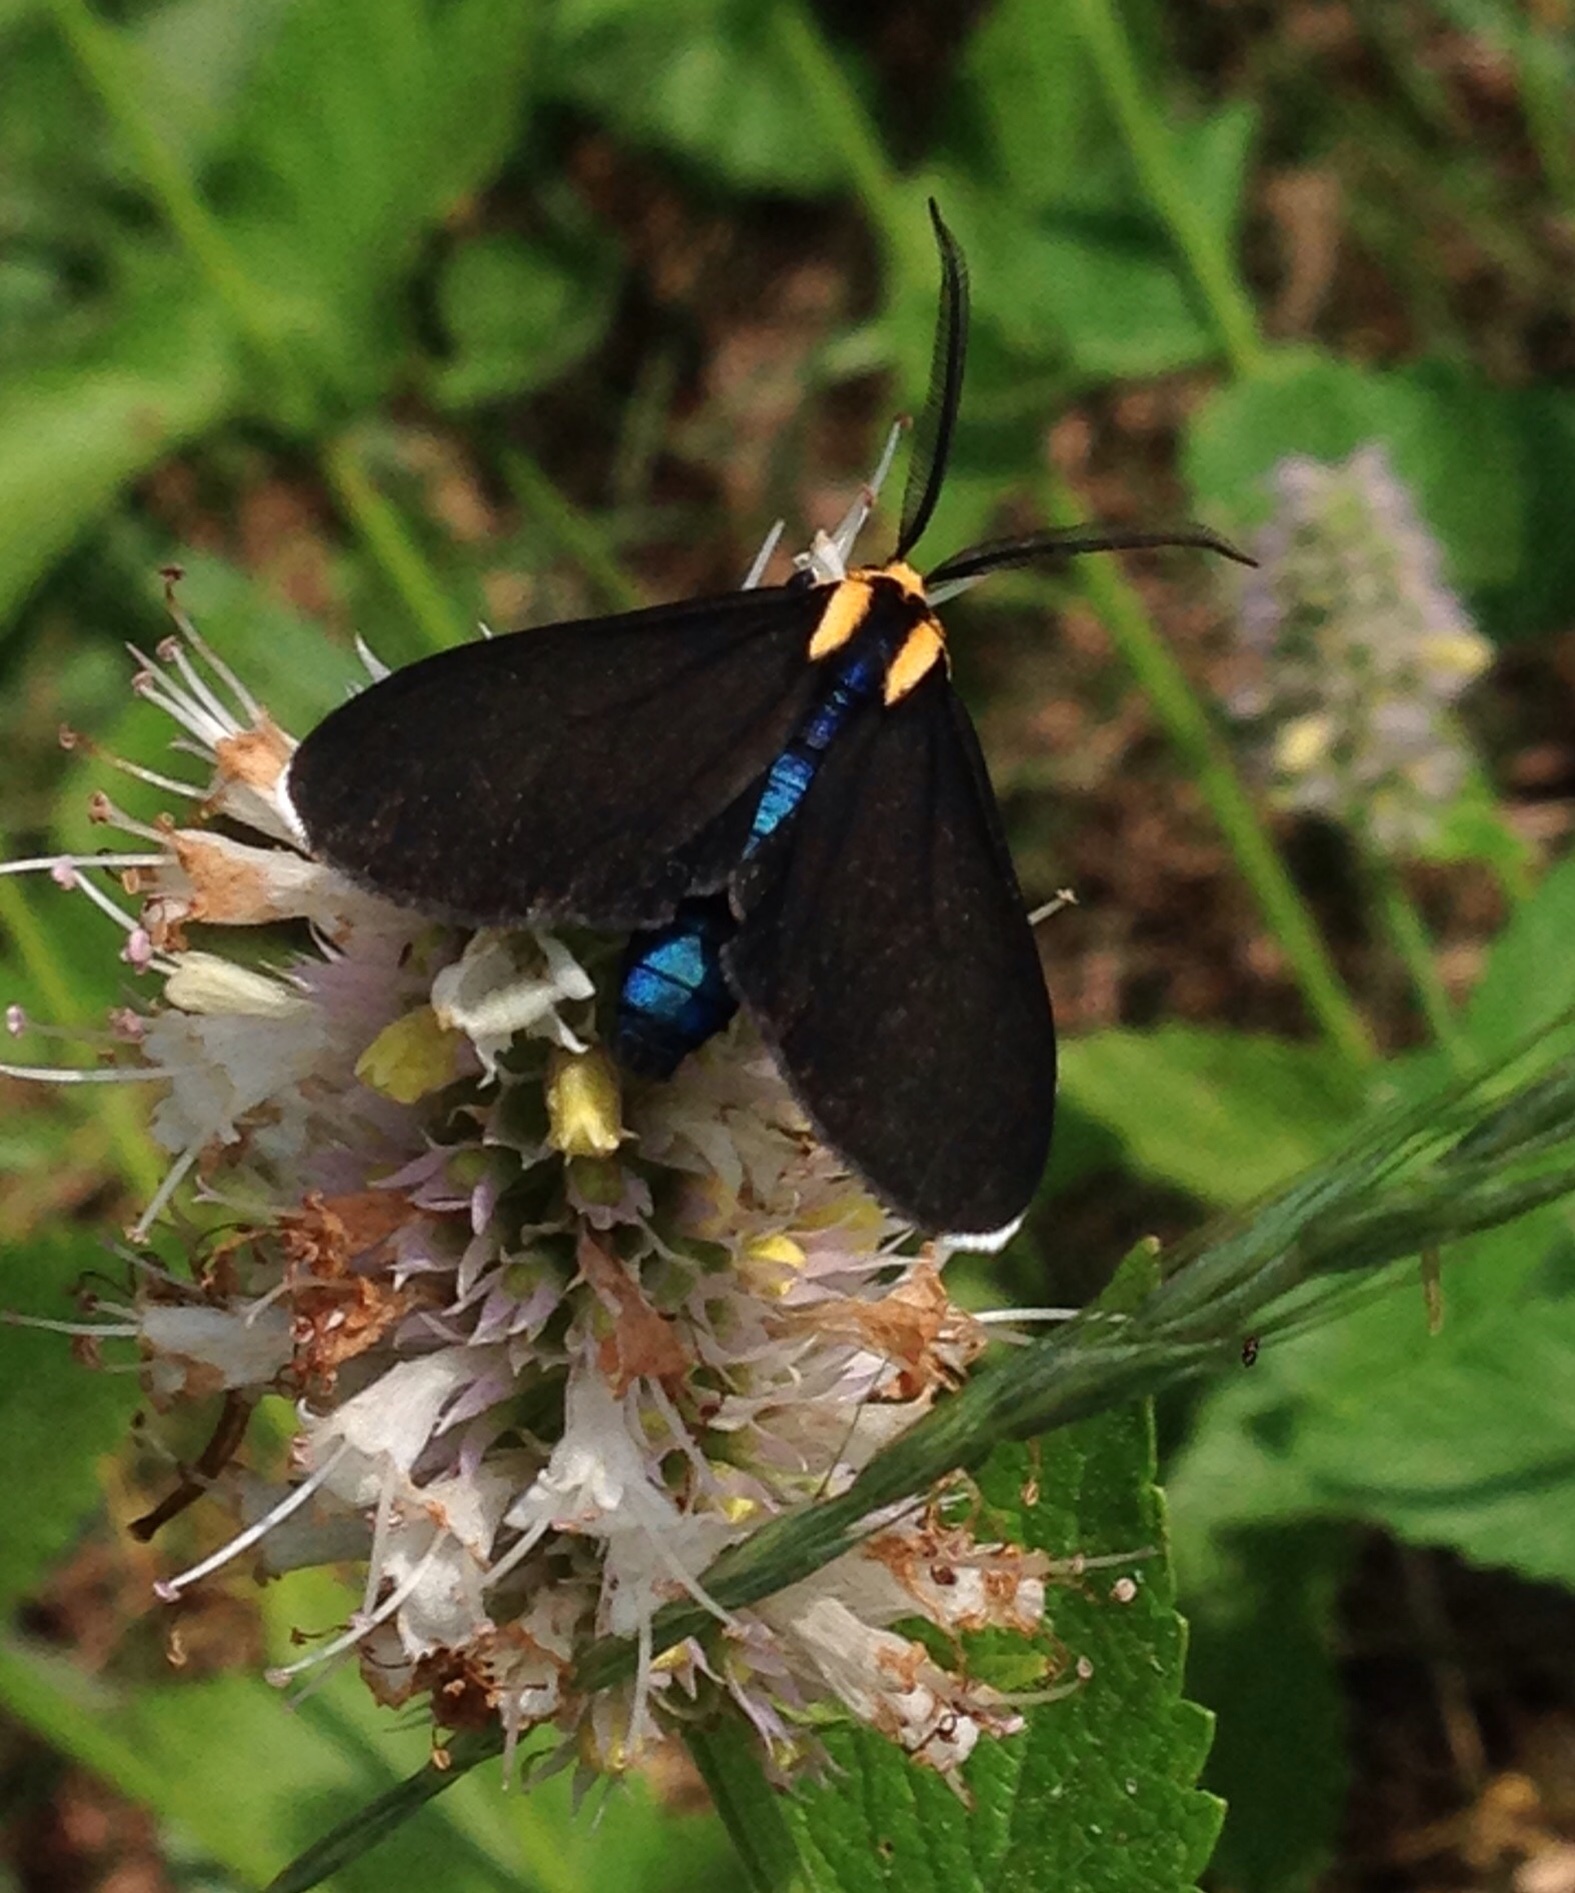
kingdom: Animalia
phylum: Arthropoda
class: Insecta
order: Lepidoptera
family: Erebidae
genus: Ctenucha
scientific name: Ctenucha rubroscapus
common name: Red-shouldered ctenucha
